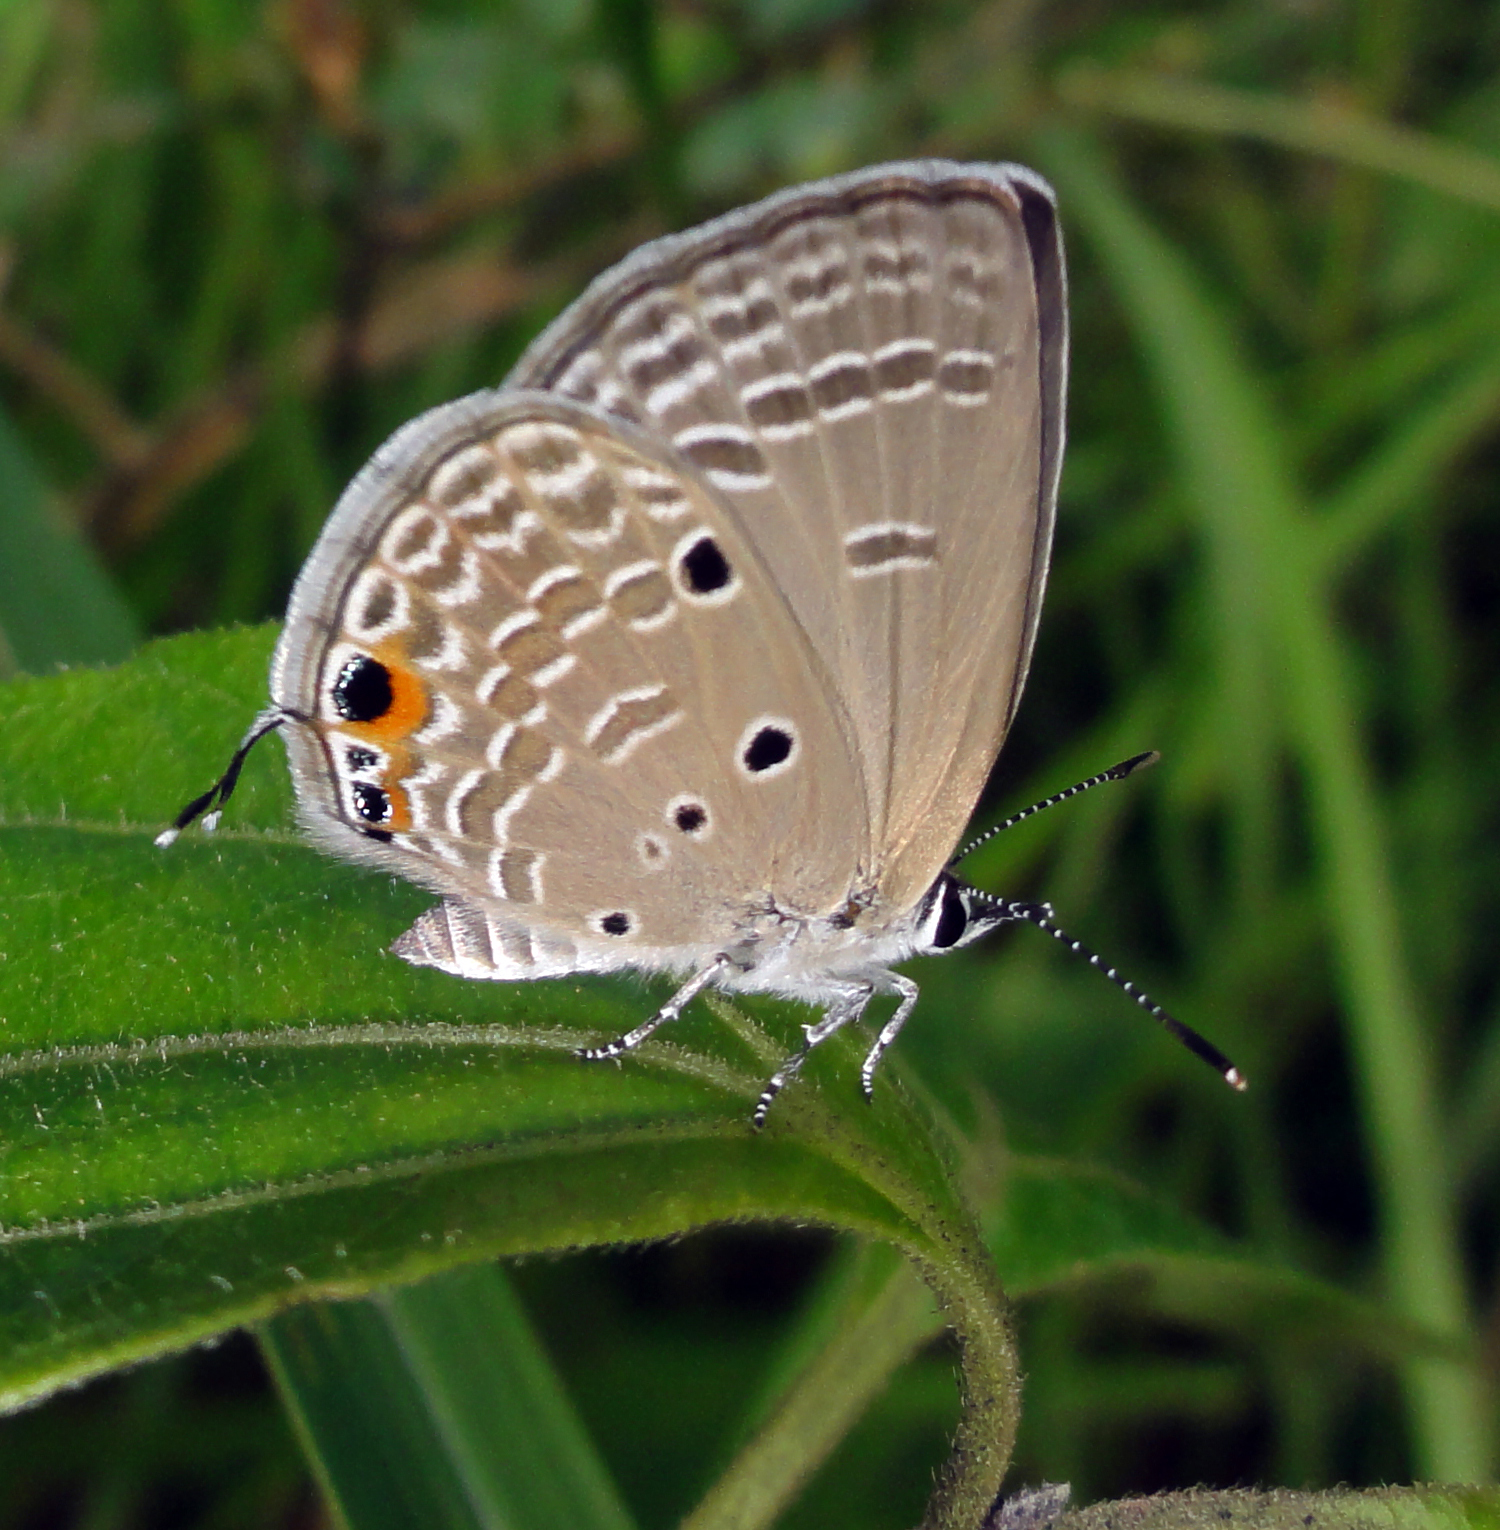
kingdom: Animalia
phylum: Arthropoda
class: Insecta
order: Lepidoptera
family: Lycaenidae
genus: Luthrodes
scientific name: Luthrodes pandava
